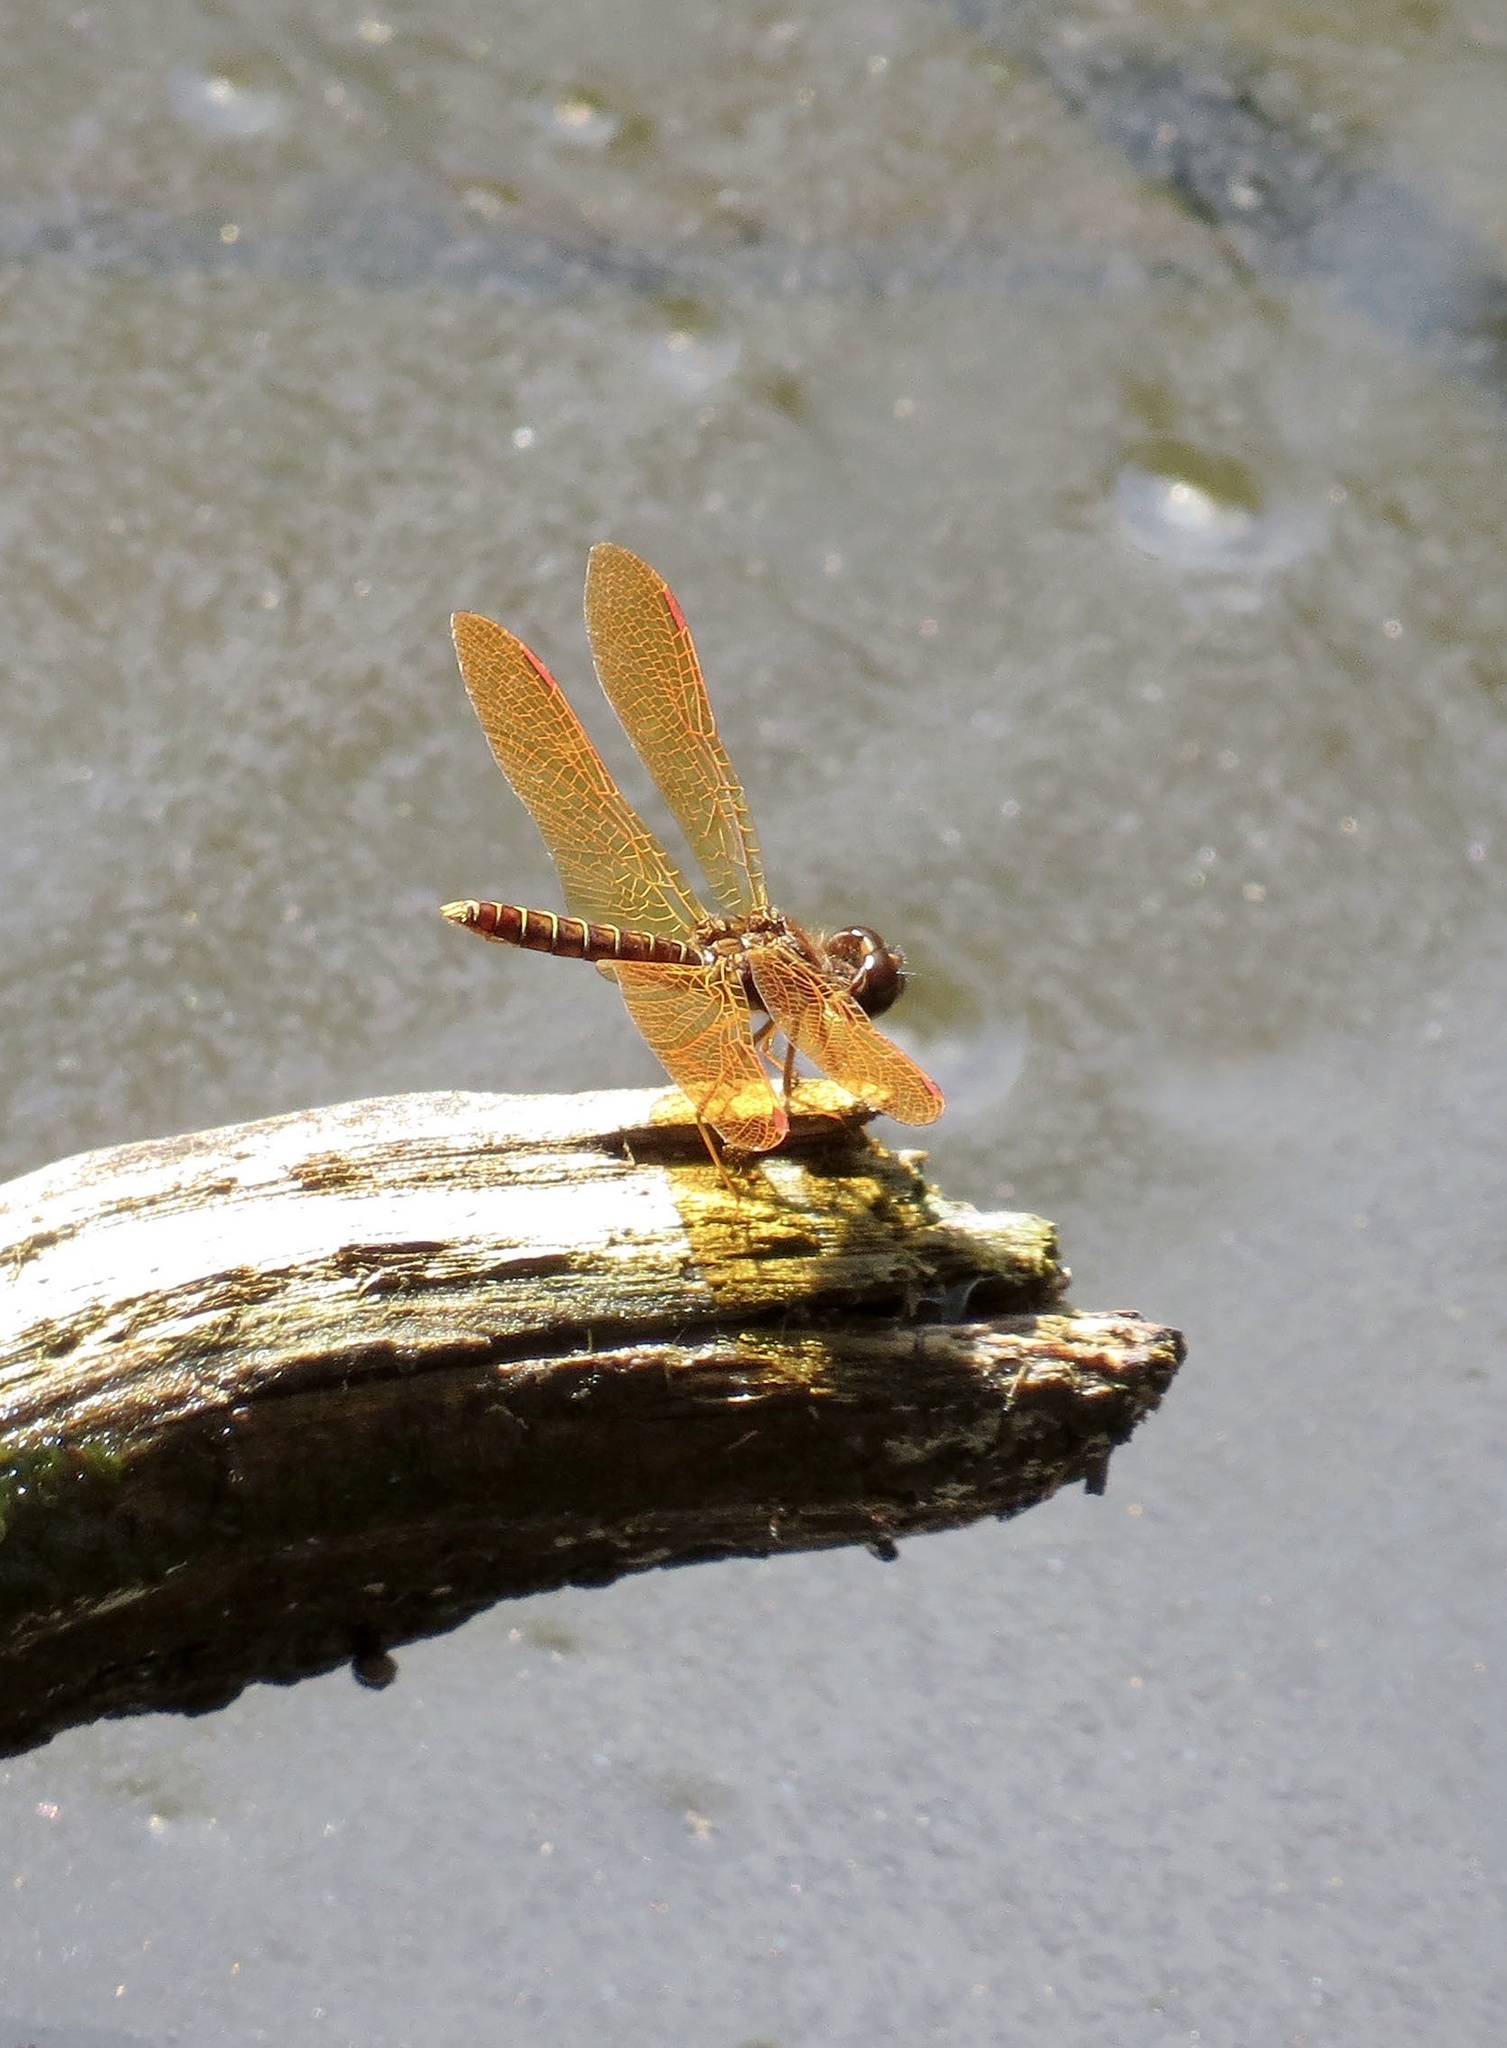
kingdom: Animalia
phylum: Arthropoda
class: Insecta
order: Odonata
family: Libellulidae
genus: Perithemis
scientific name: Perithemis tenera
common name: Eastern amberwing
